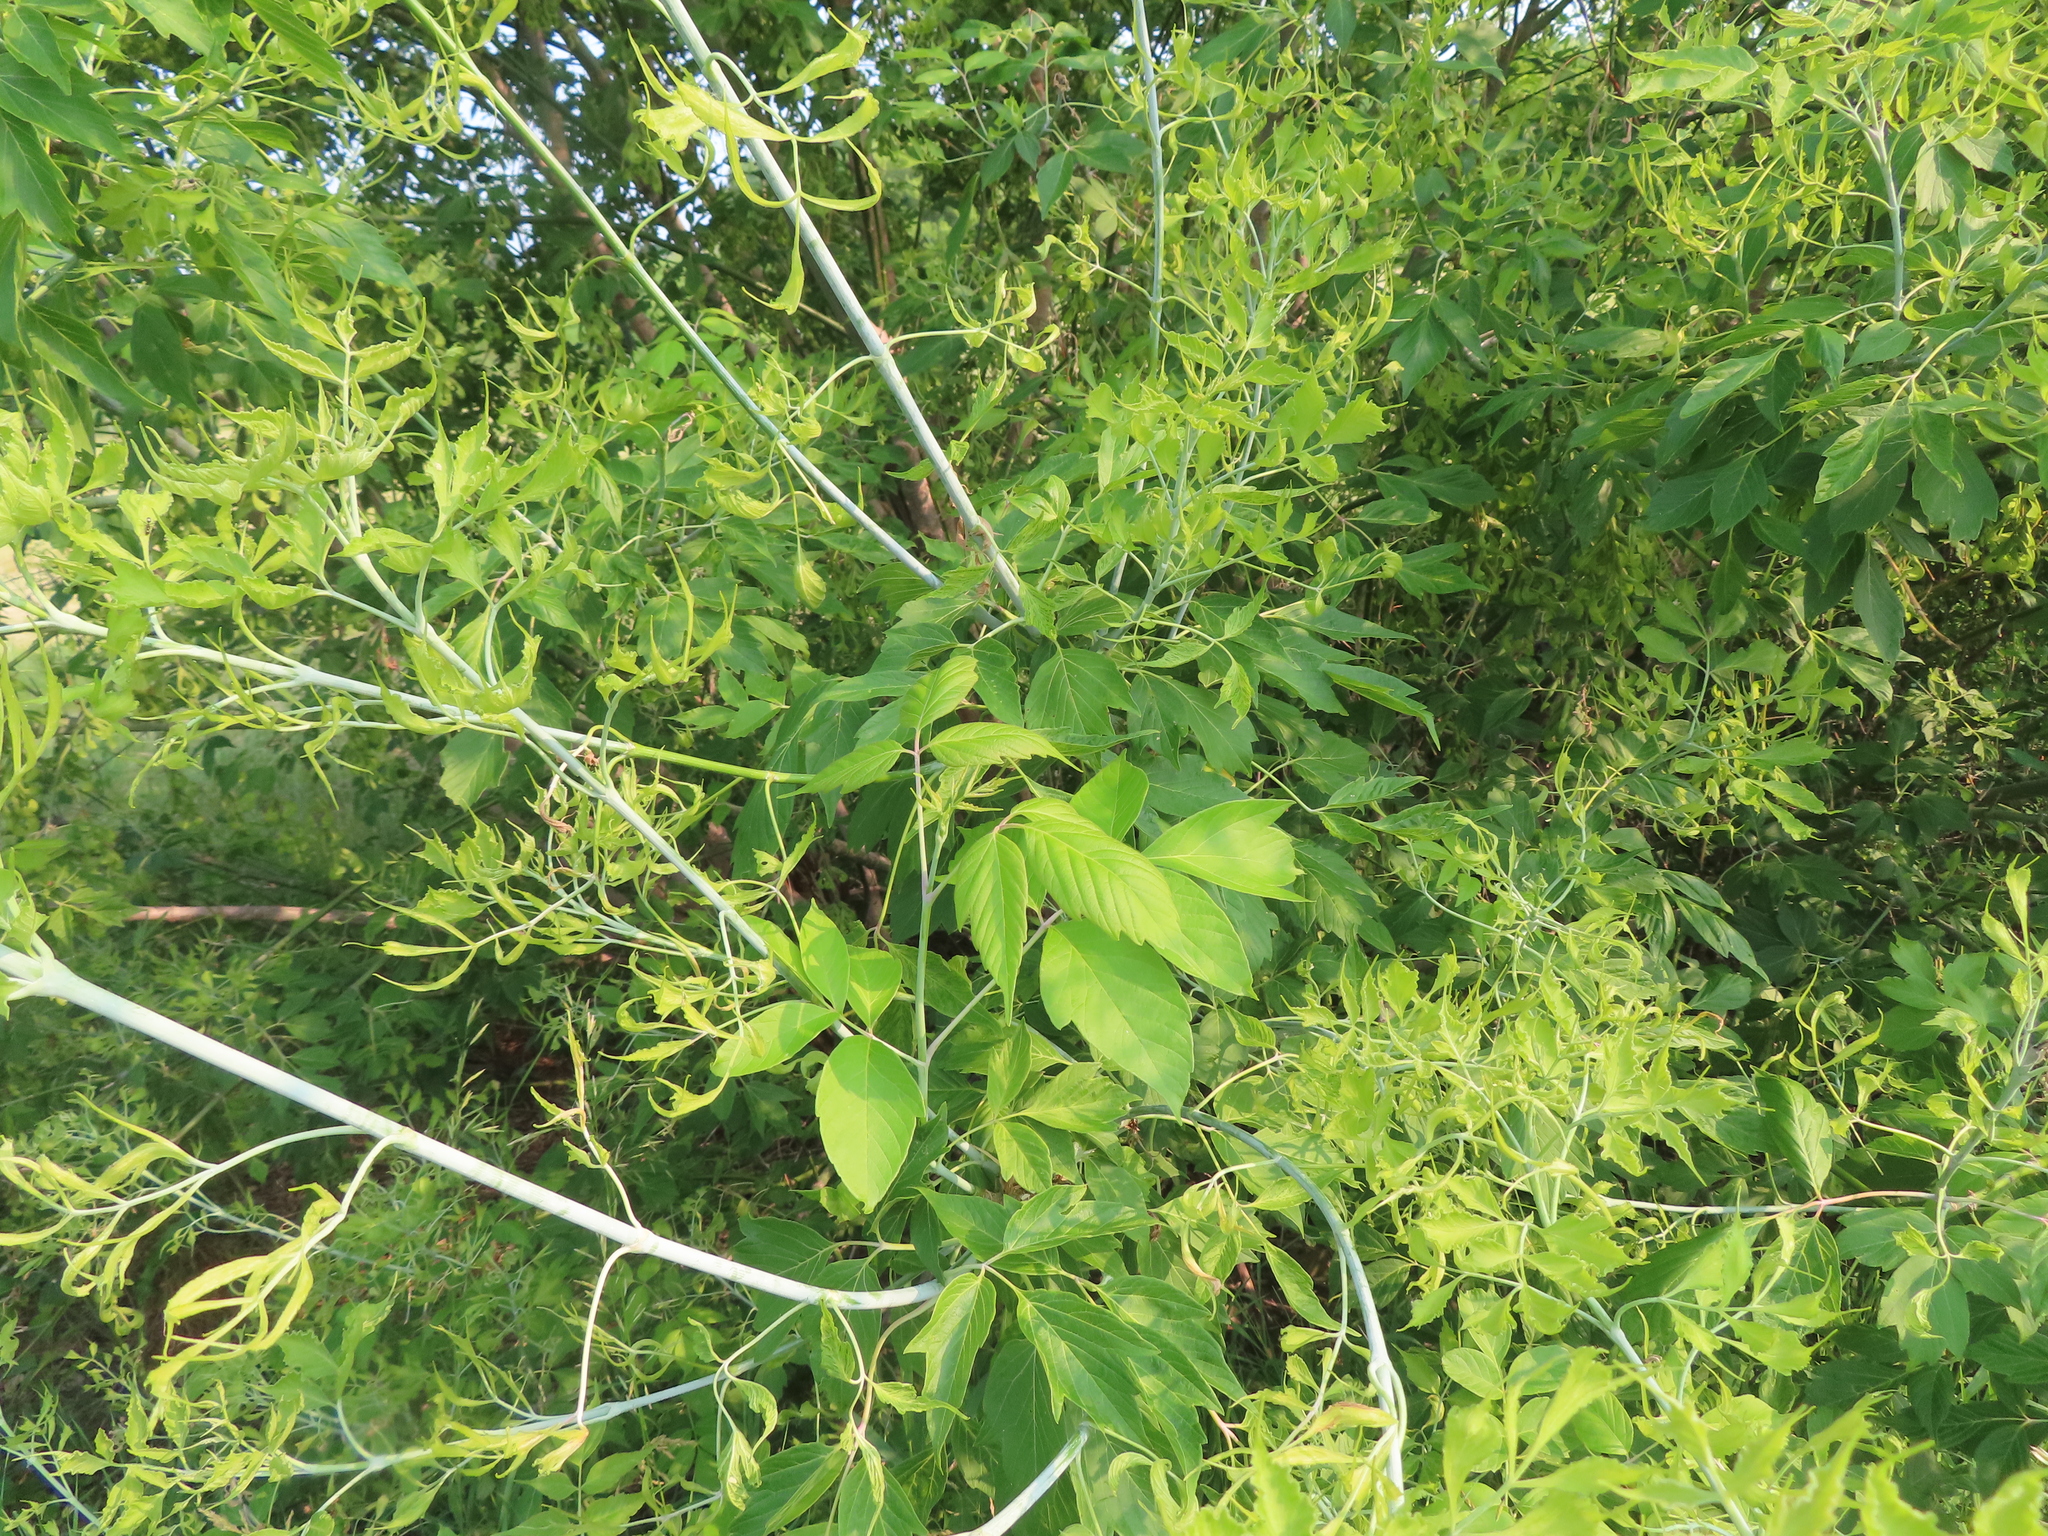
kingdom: Plantae
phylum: Tracheophyta
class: Magnoliopsida
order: Sapindales
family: Sapindaceae
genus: Acer
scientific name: Acer negundo
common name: Ashleaf maple
